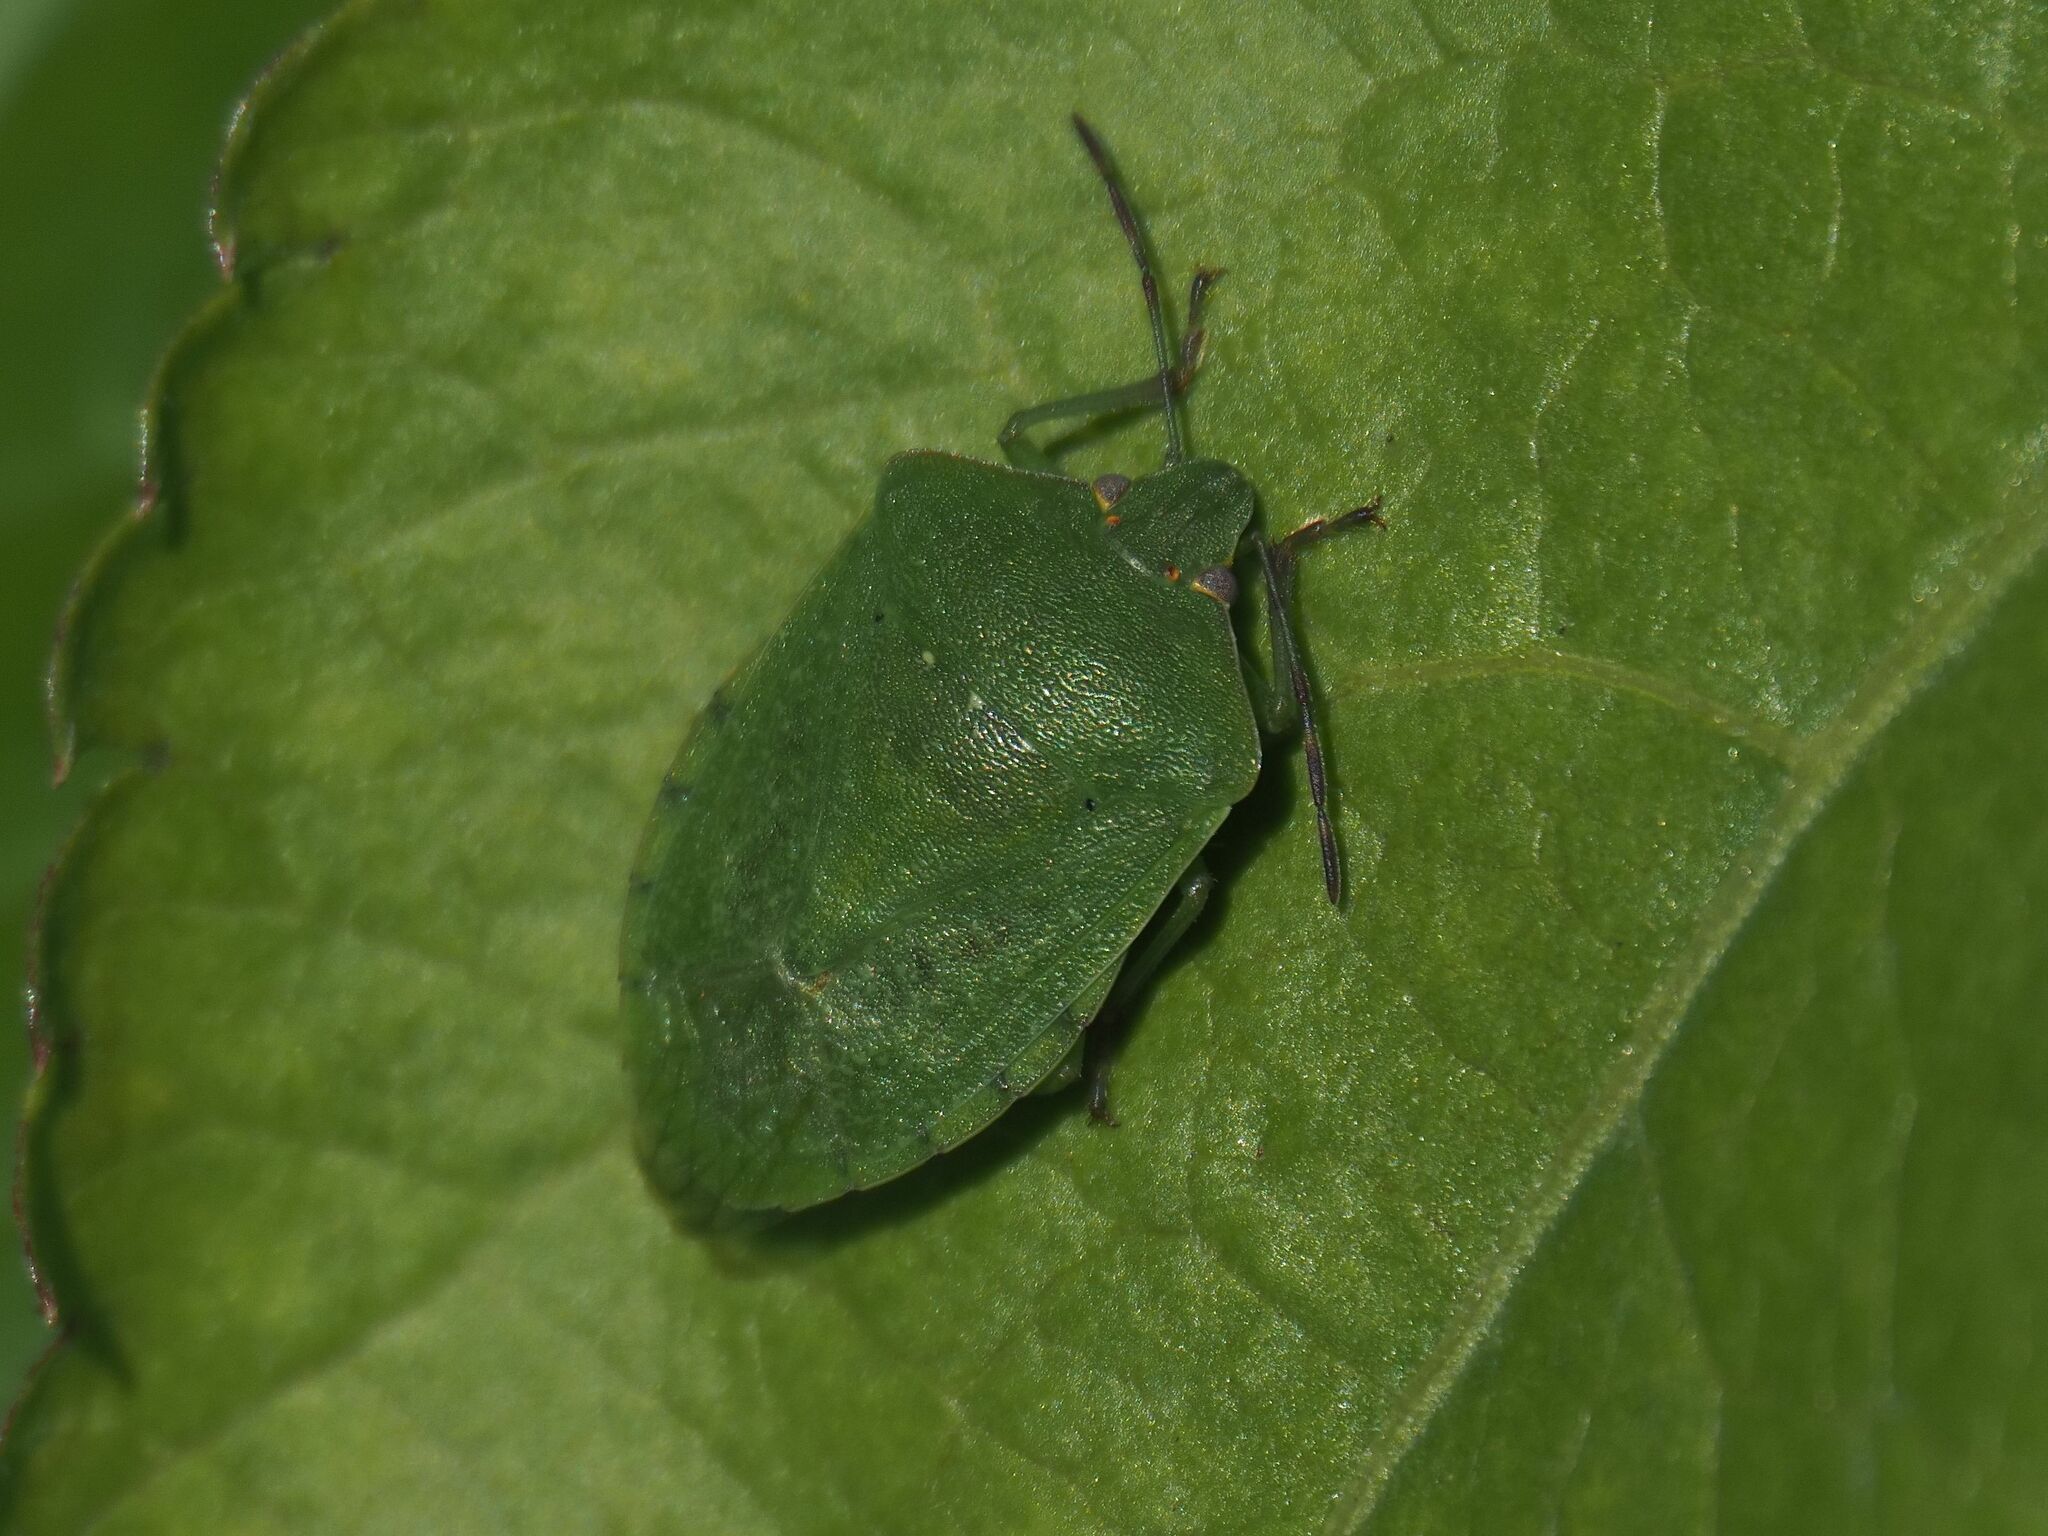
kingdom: Animalia
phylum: Arthropoda
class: Insecta
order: Hemiptera
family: Pentatomidae
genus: Nezara
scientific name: Nezara viridula
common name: Southern green stink bug
